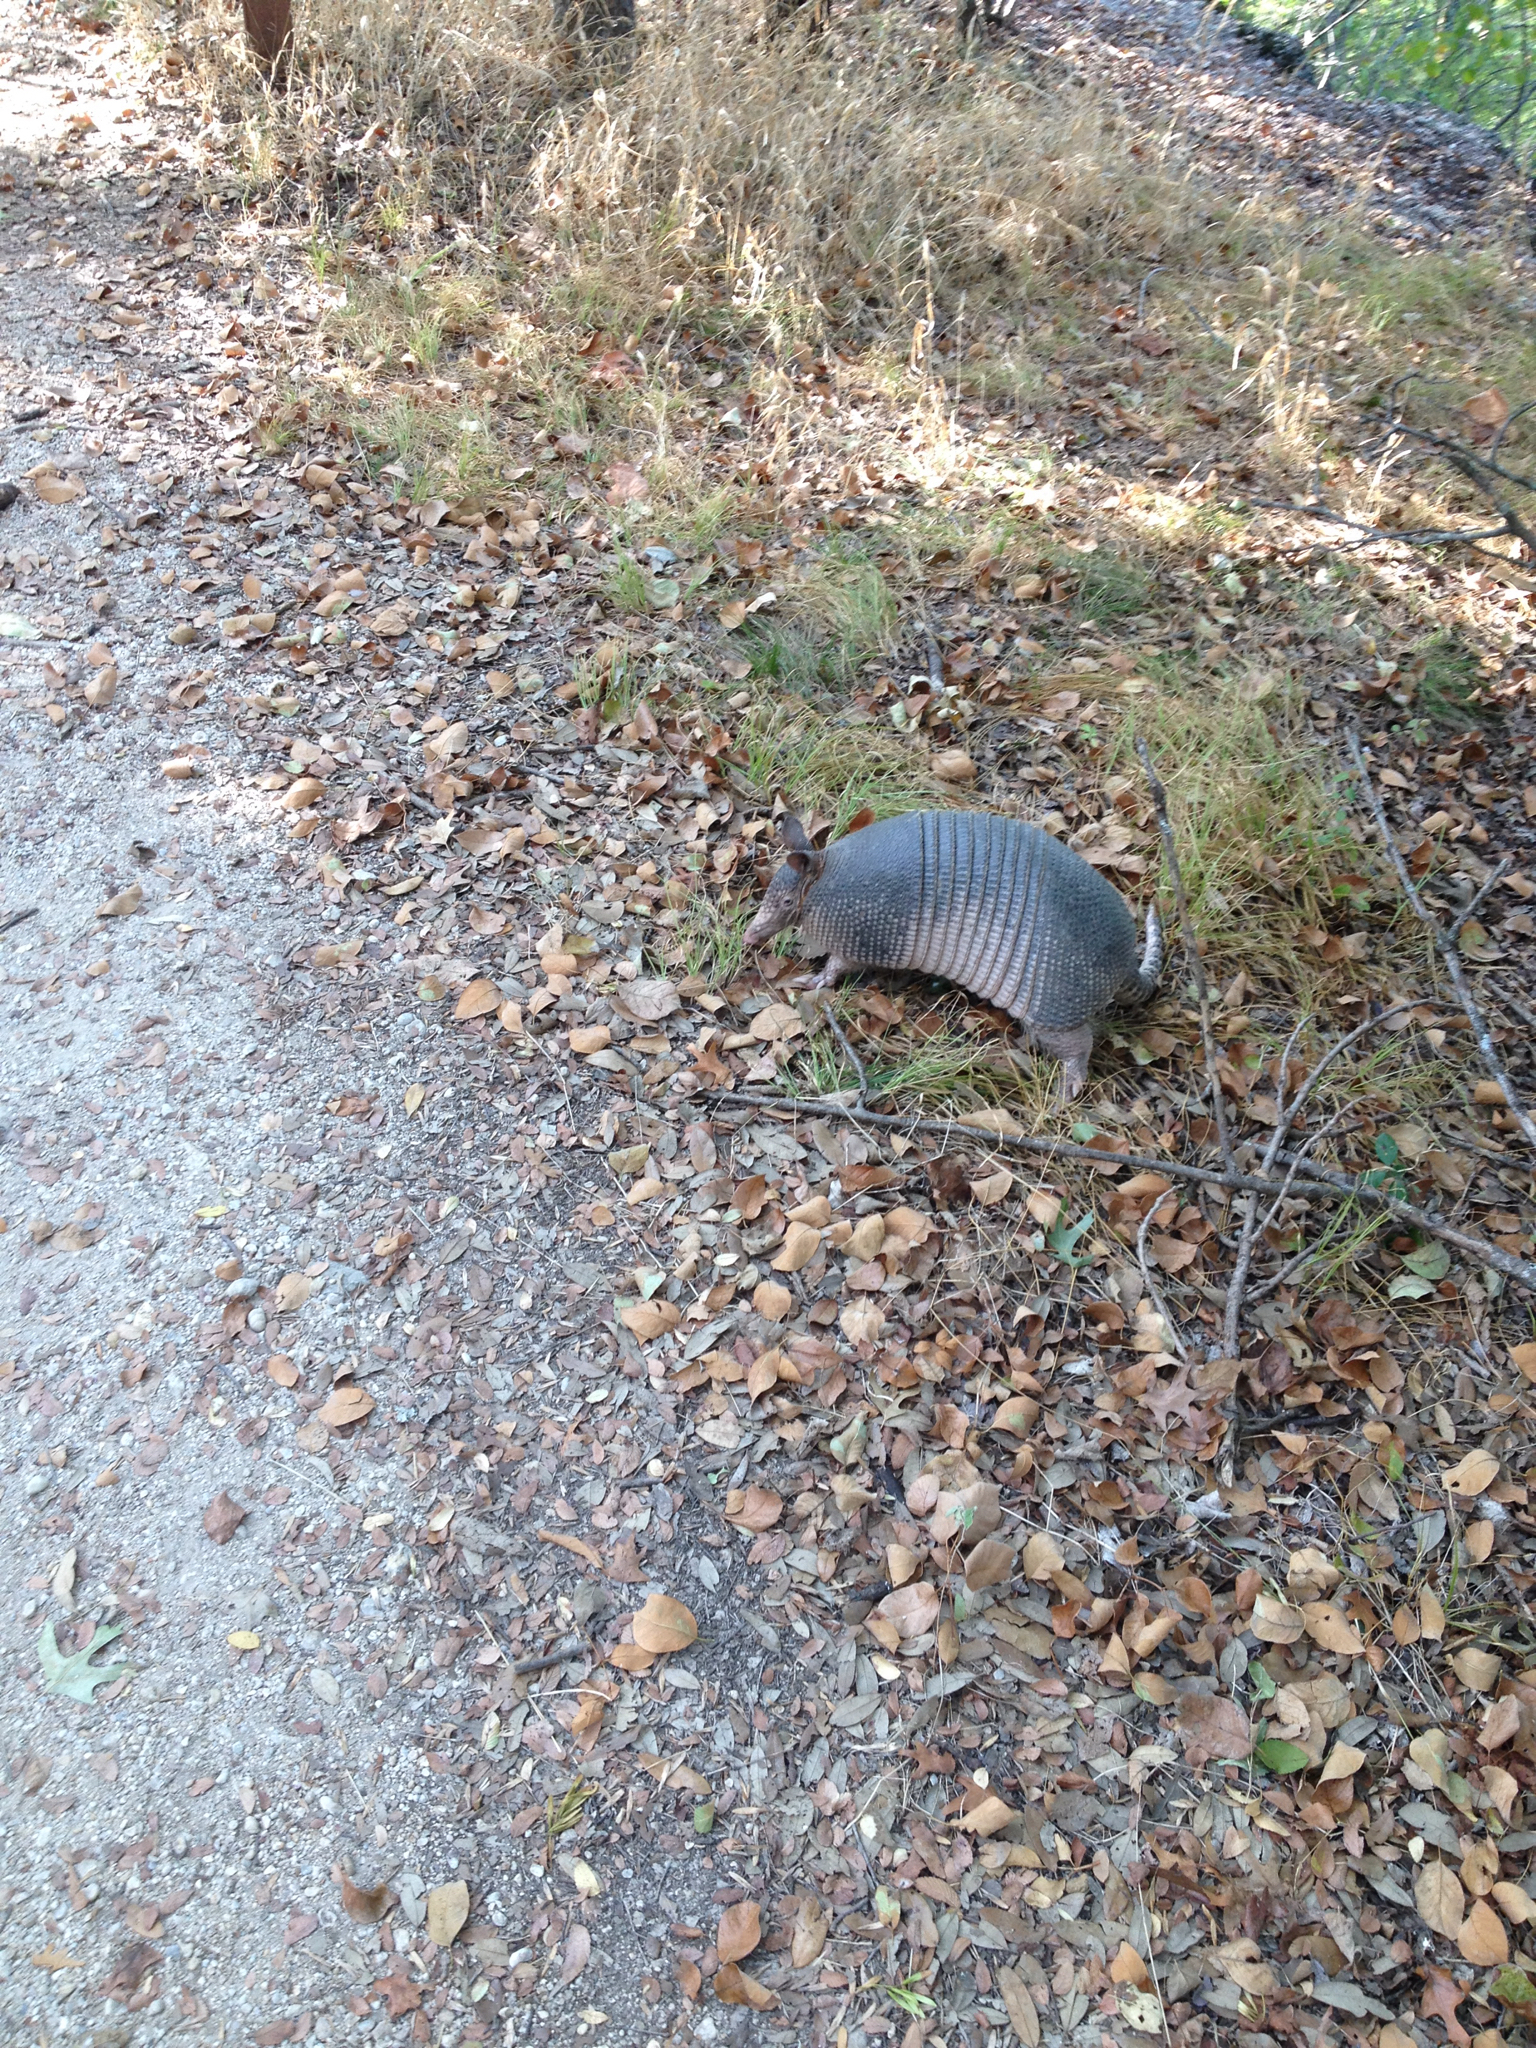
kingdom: Animalia
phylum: Chordata
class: Mammalia
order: Cingulata
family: Dasypodidae
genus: Dasypus
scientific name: Dasypus novemcinctus
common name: Nine-banded armadillo
